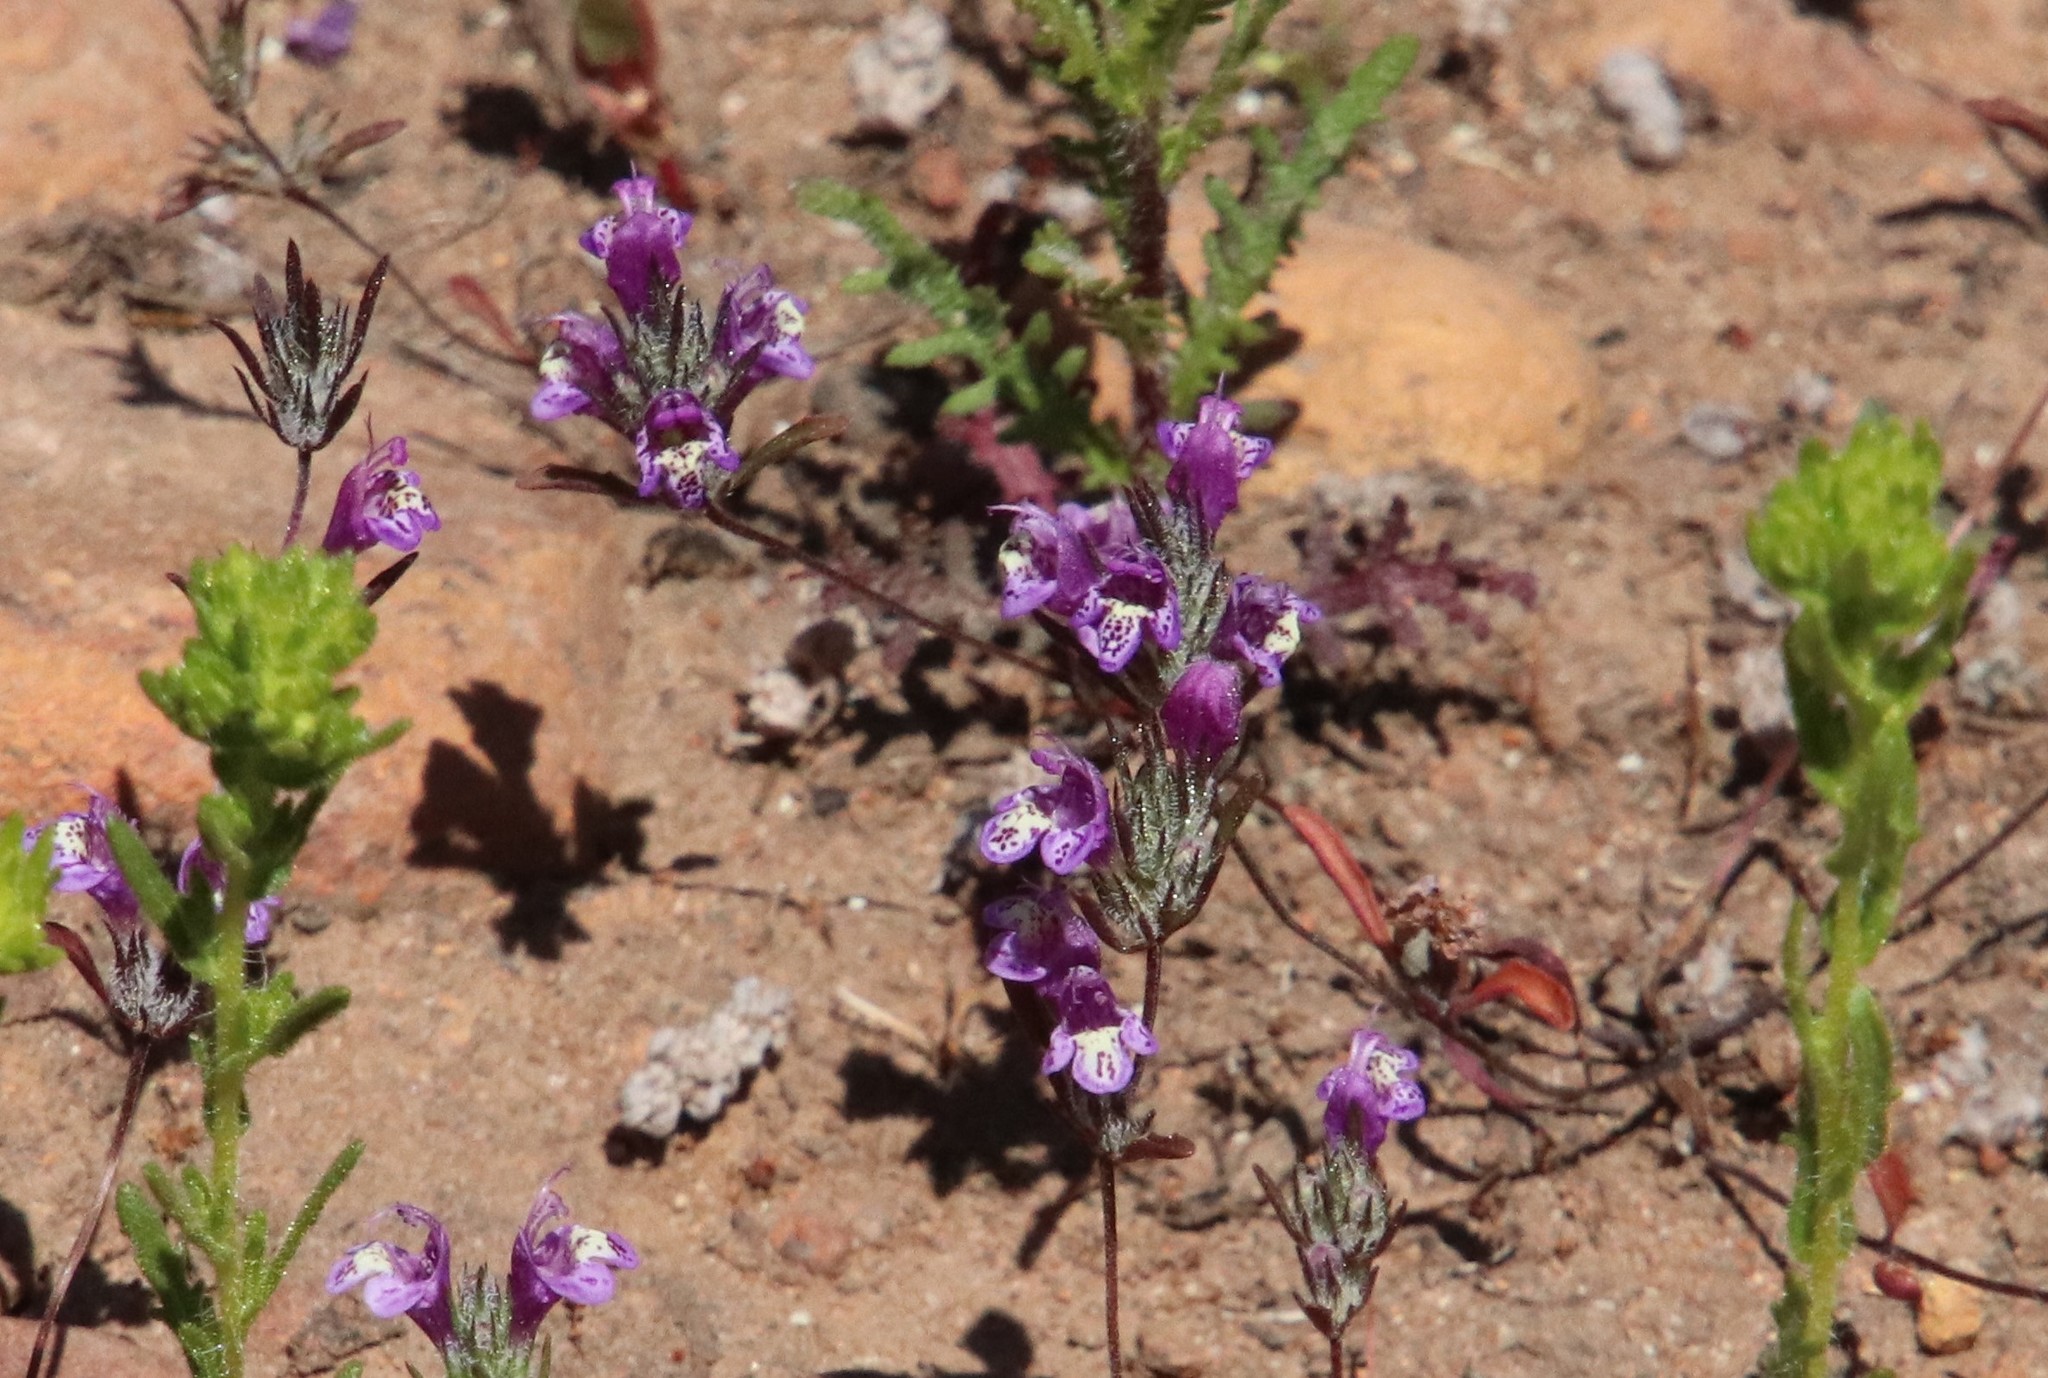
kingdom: Plantae
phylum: Tracheophyta
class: Magnoliopsida
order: Lamiales
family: Lamiaceae
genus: Pogogyne
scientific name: Pogogyne abramsii
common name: San diego mesa-mint
